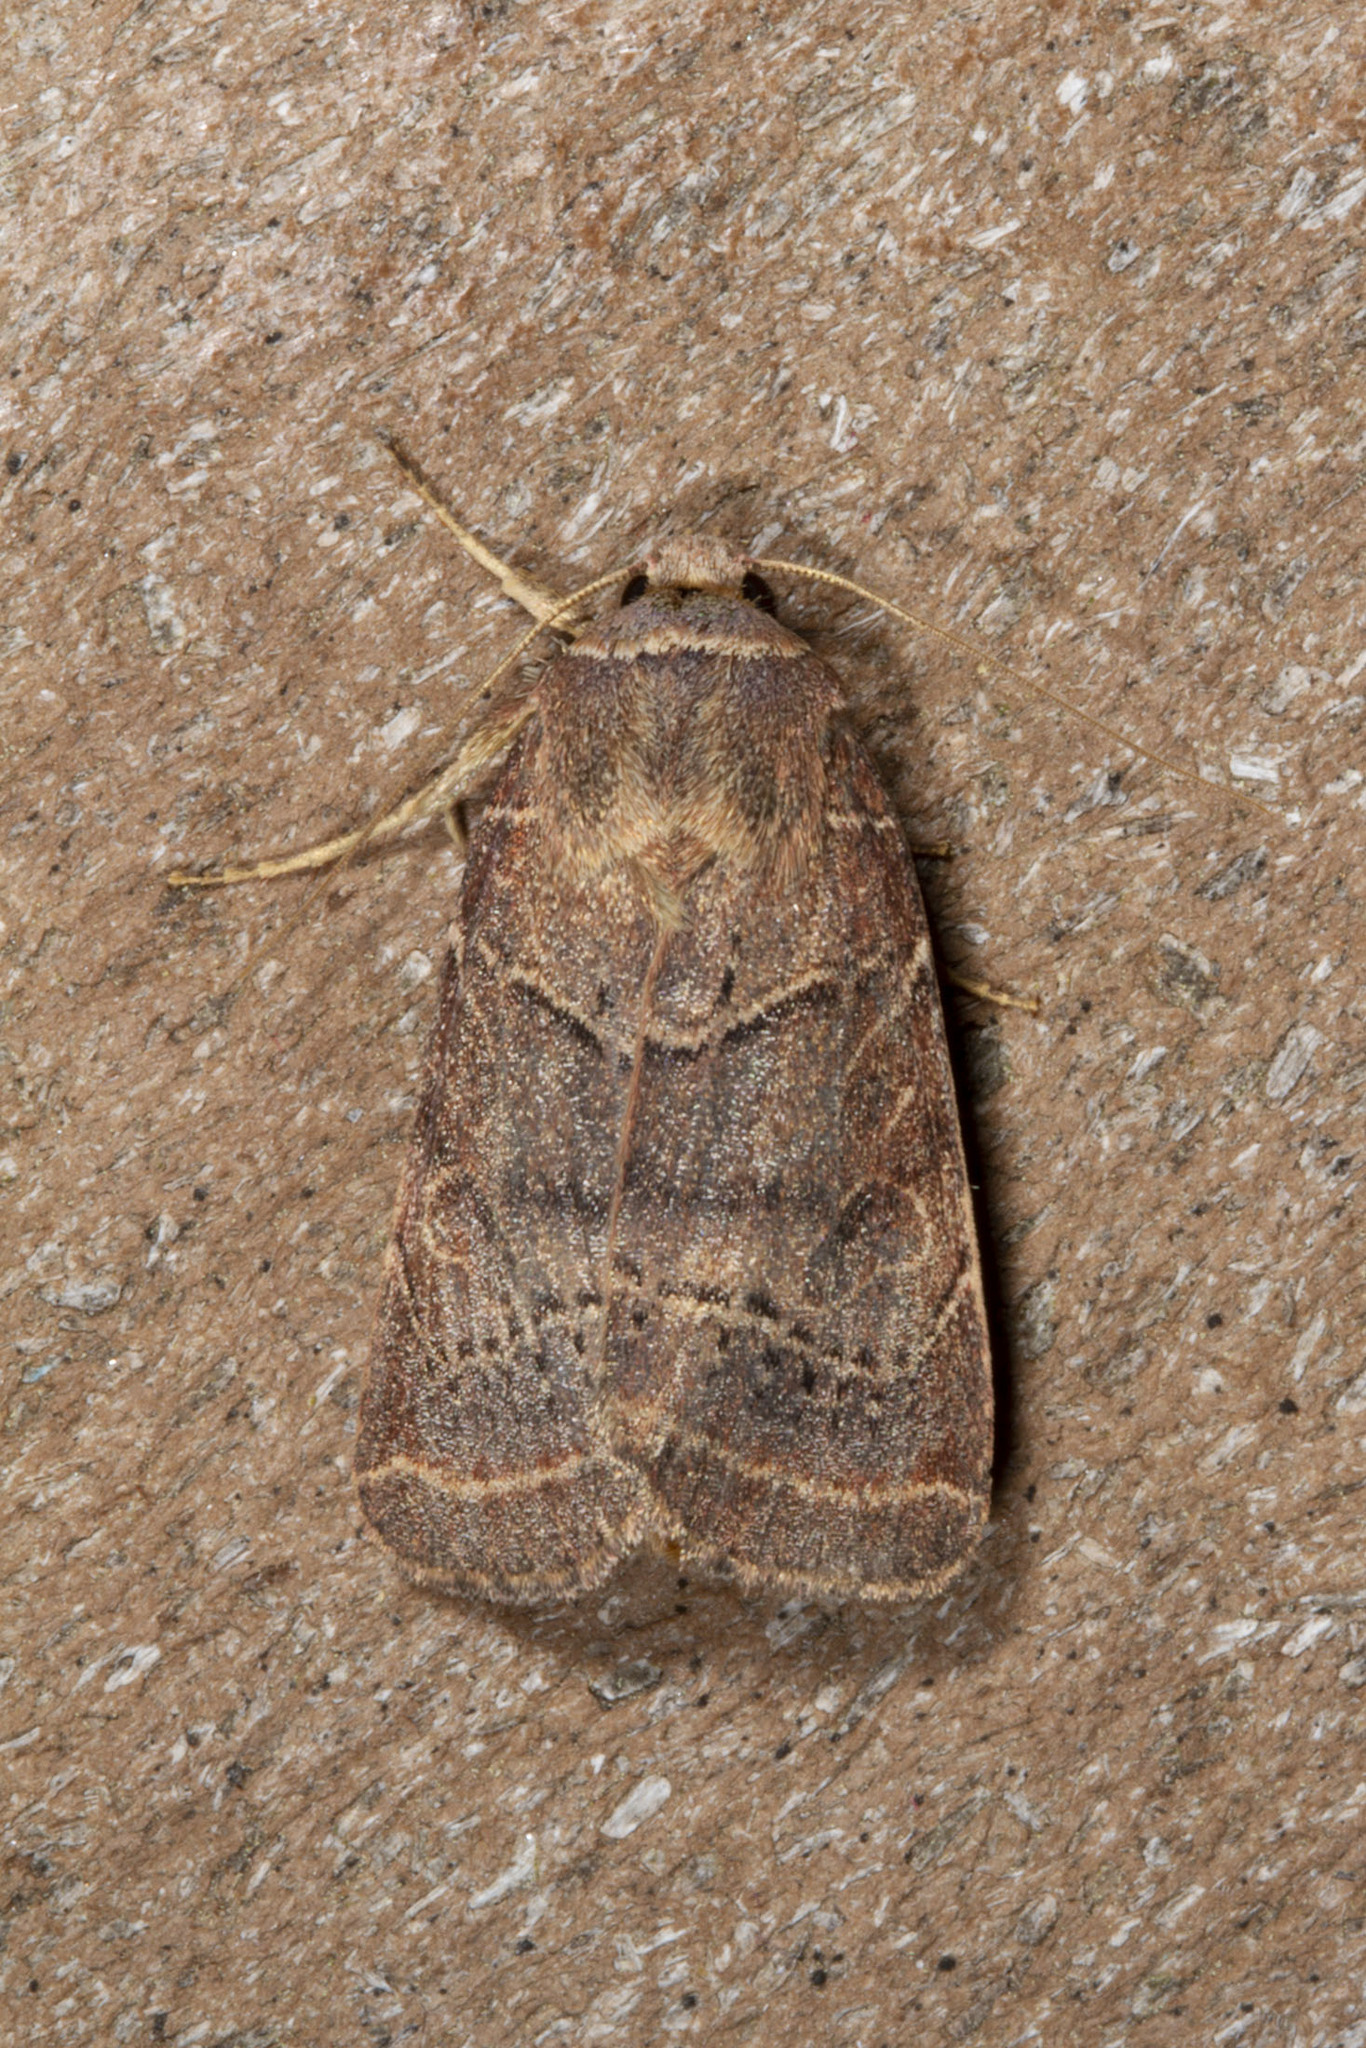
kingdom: Animalia
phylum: Arthropoda
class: Insecta
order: Lepidoptera
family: Noctuidae
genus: Orthodes
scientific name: Orthodes majuscula
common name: Rustic quaker
